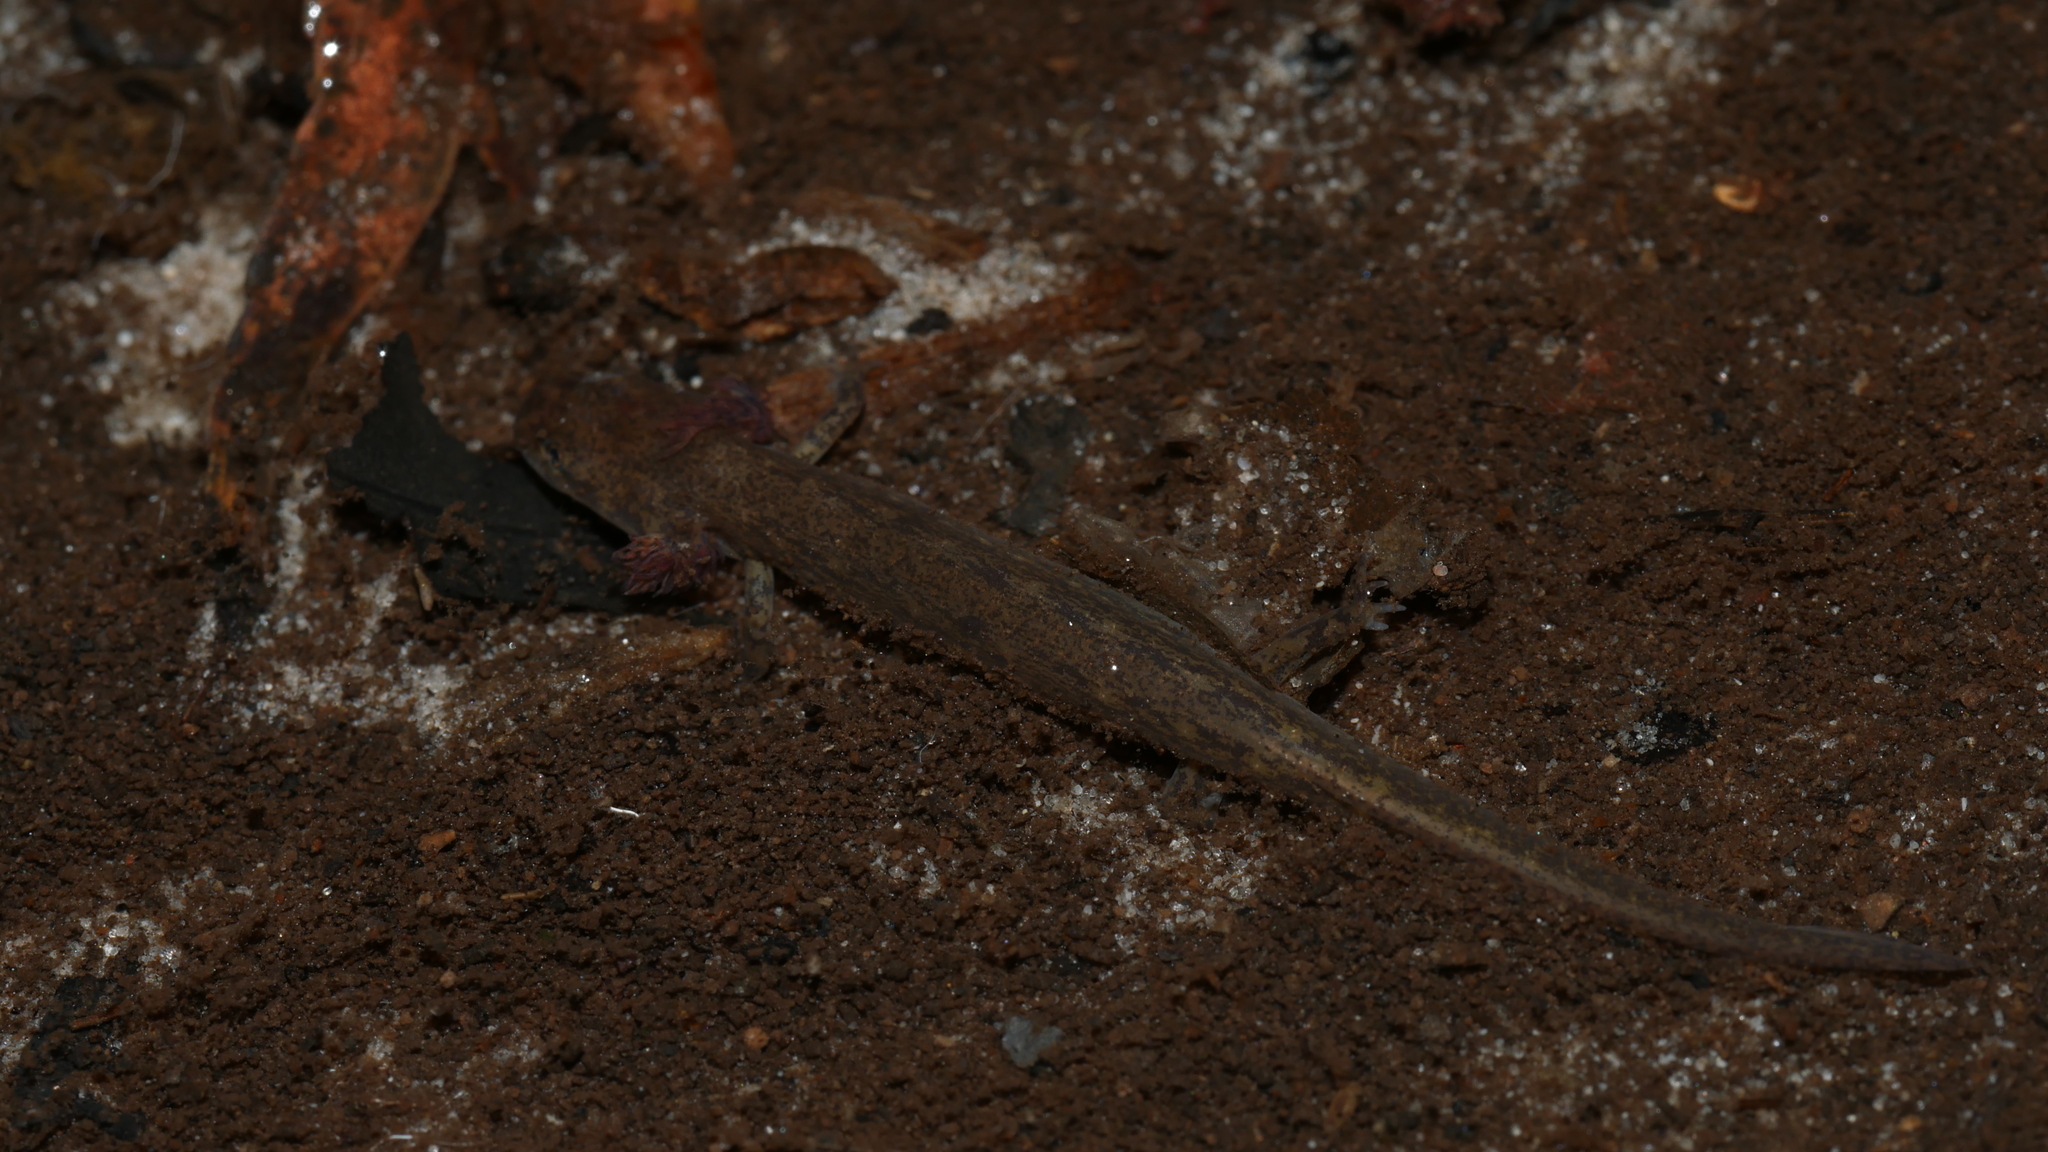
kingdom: Animalia
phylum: Chordata
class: Amphibia
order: Caudata
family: Plethodontidae
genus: Eurycea
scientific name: Eurycea cirrigera
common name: Southern two-lined salamander
